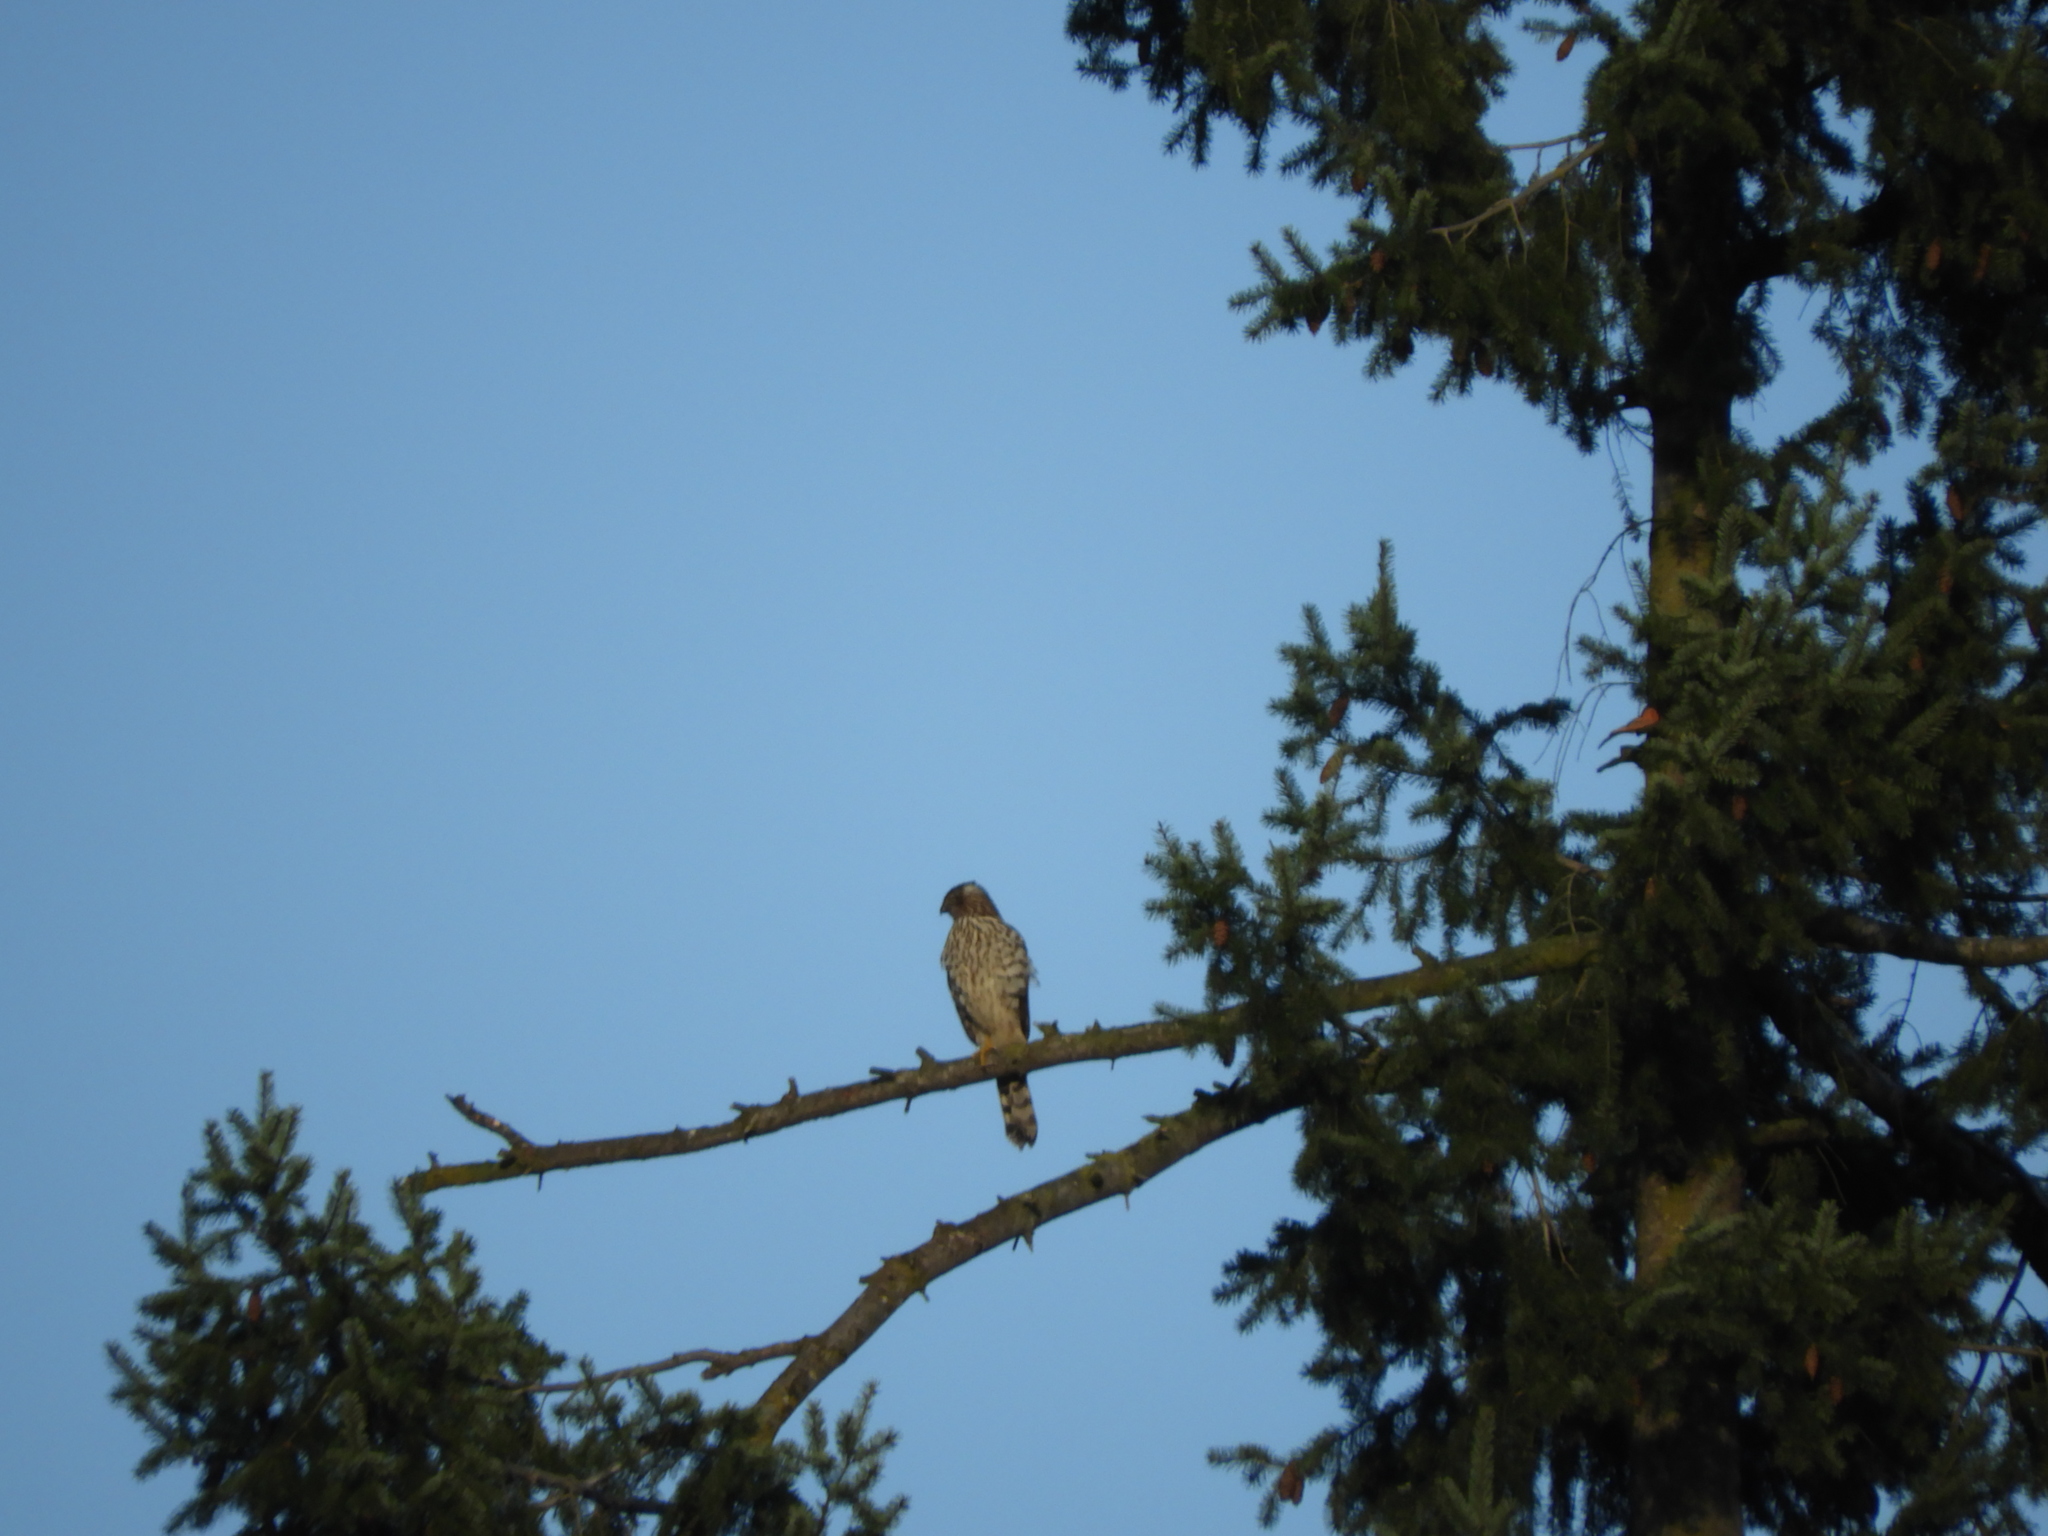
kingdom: Animalia
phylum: Chordata
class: Aves
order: Accipitriformes
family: Accipitridae
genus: Accipiter
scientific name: Accipiter cooperii
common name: Cooper's hawk
